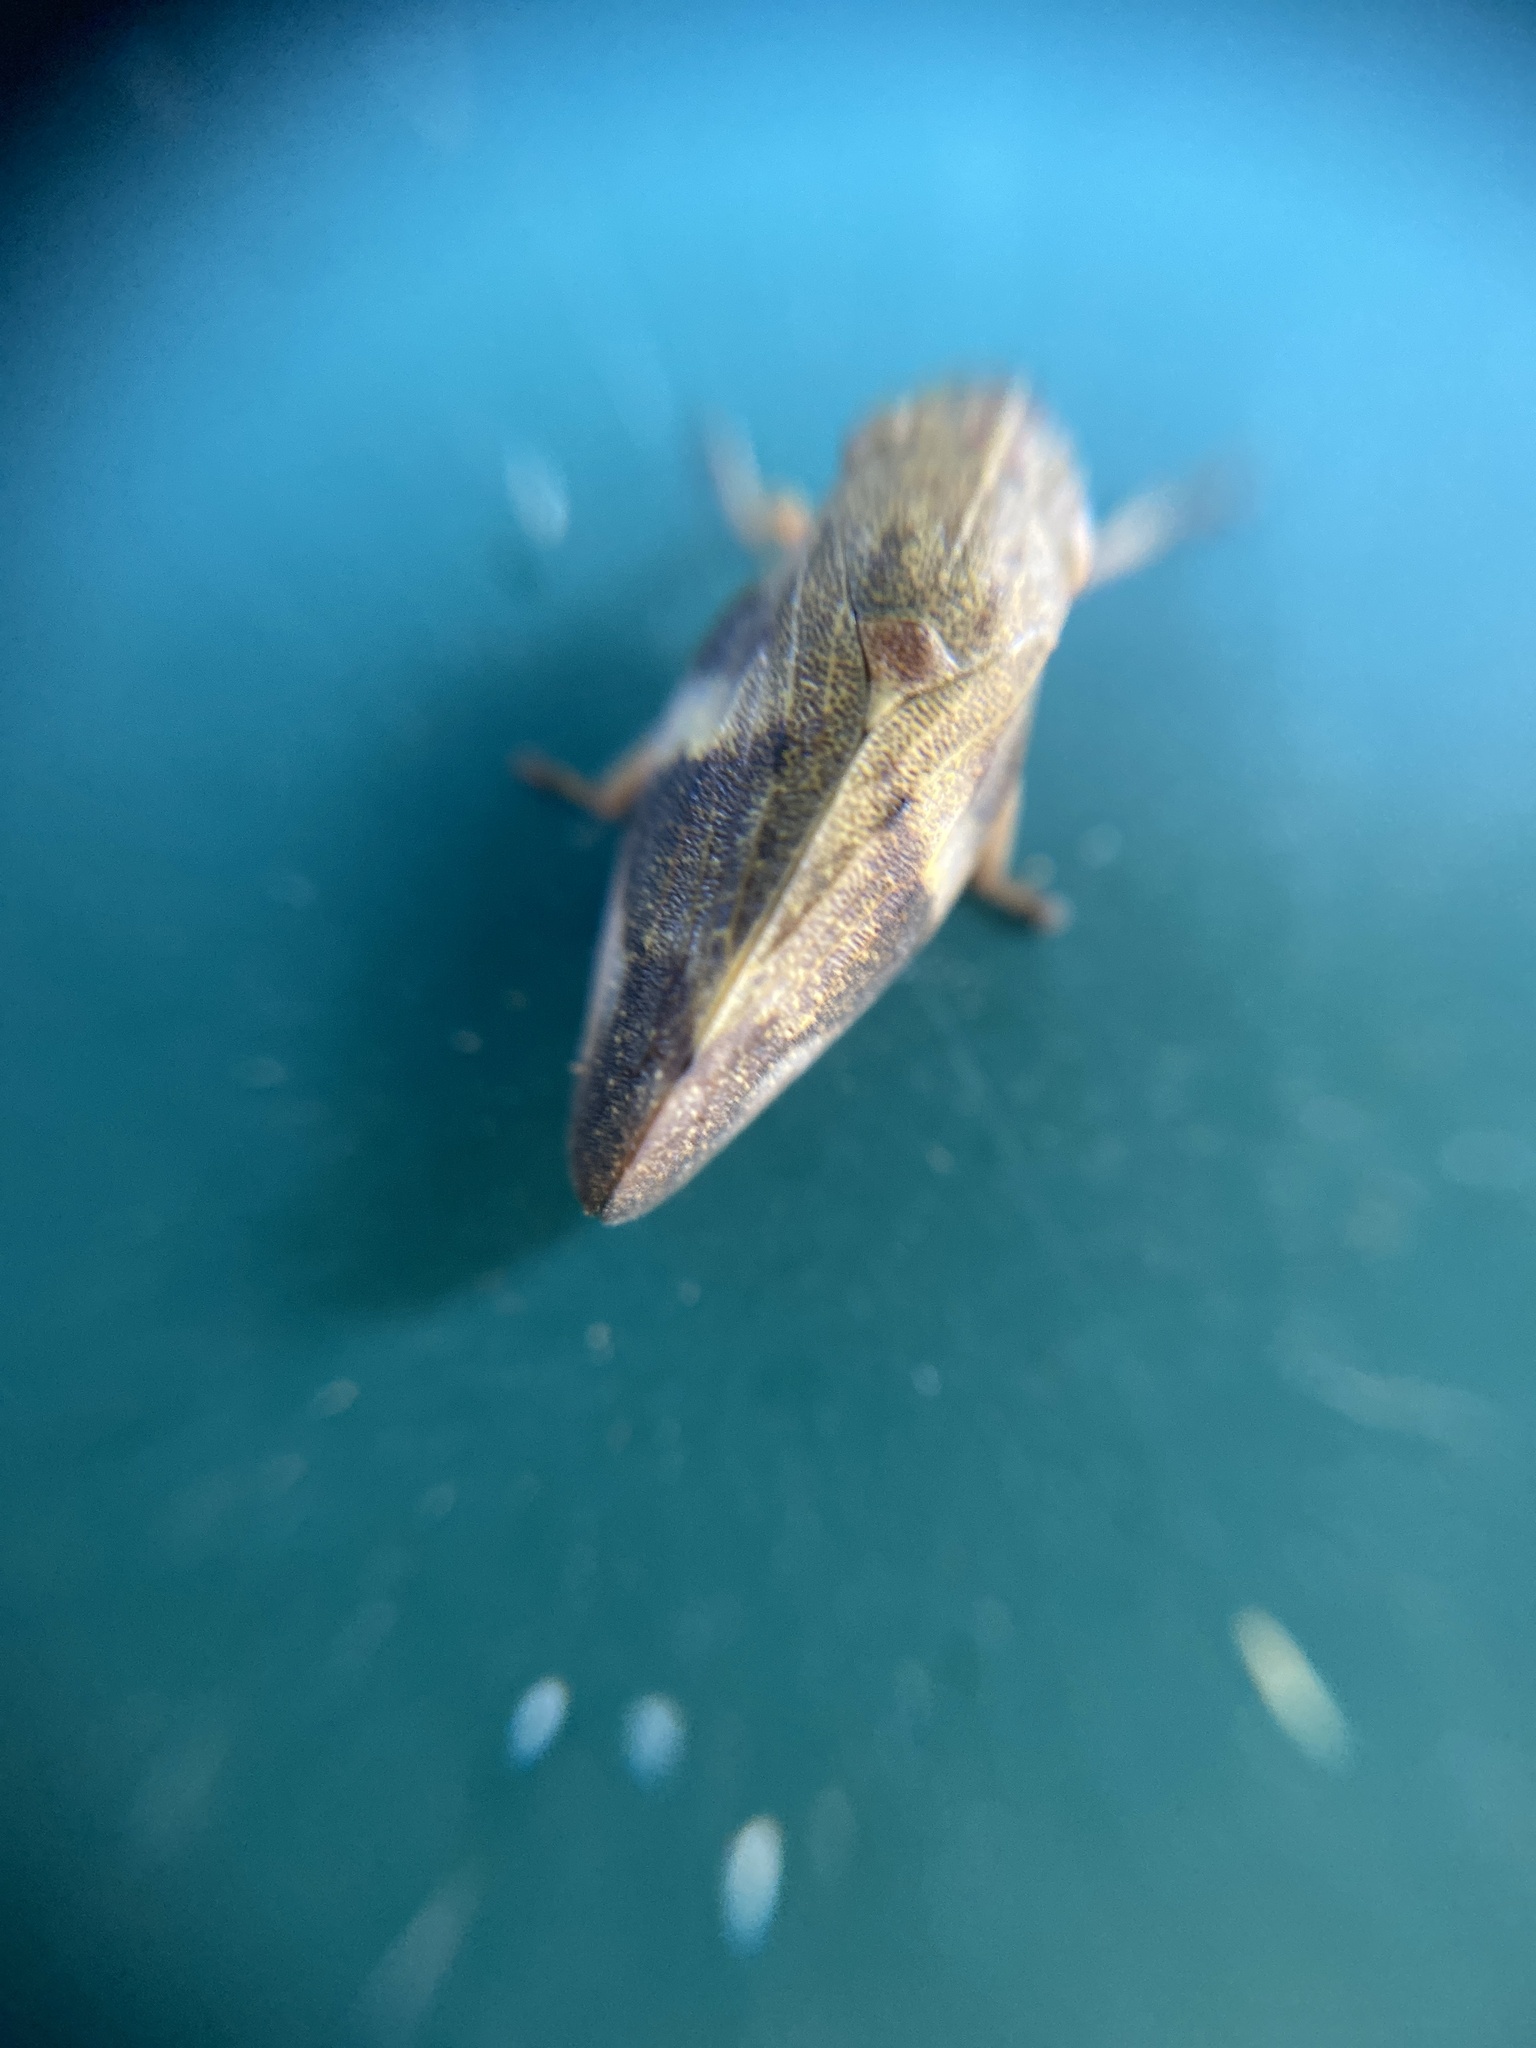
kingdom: Animalia
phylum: Arthropoda
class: Insecta
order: Hemiptera
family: Aphrophoridae
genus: Aphrophora
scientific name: Aphrophora alni
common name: European alder spittlebug
